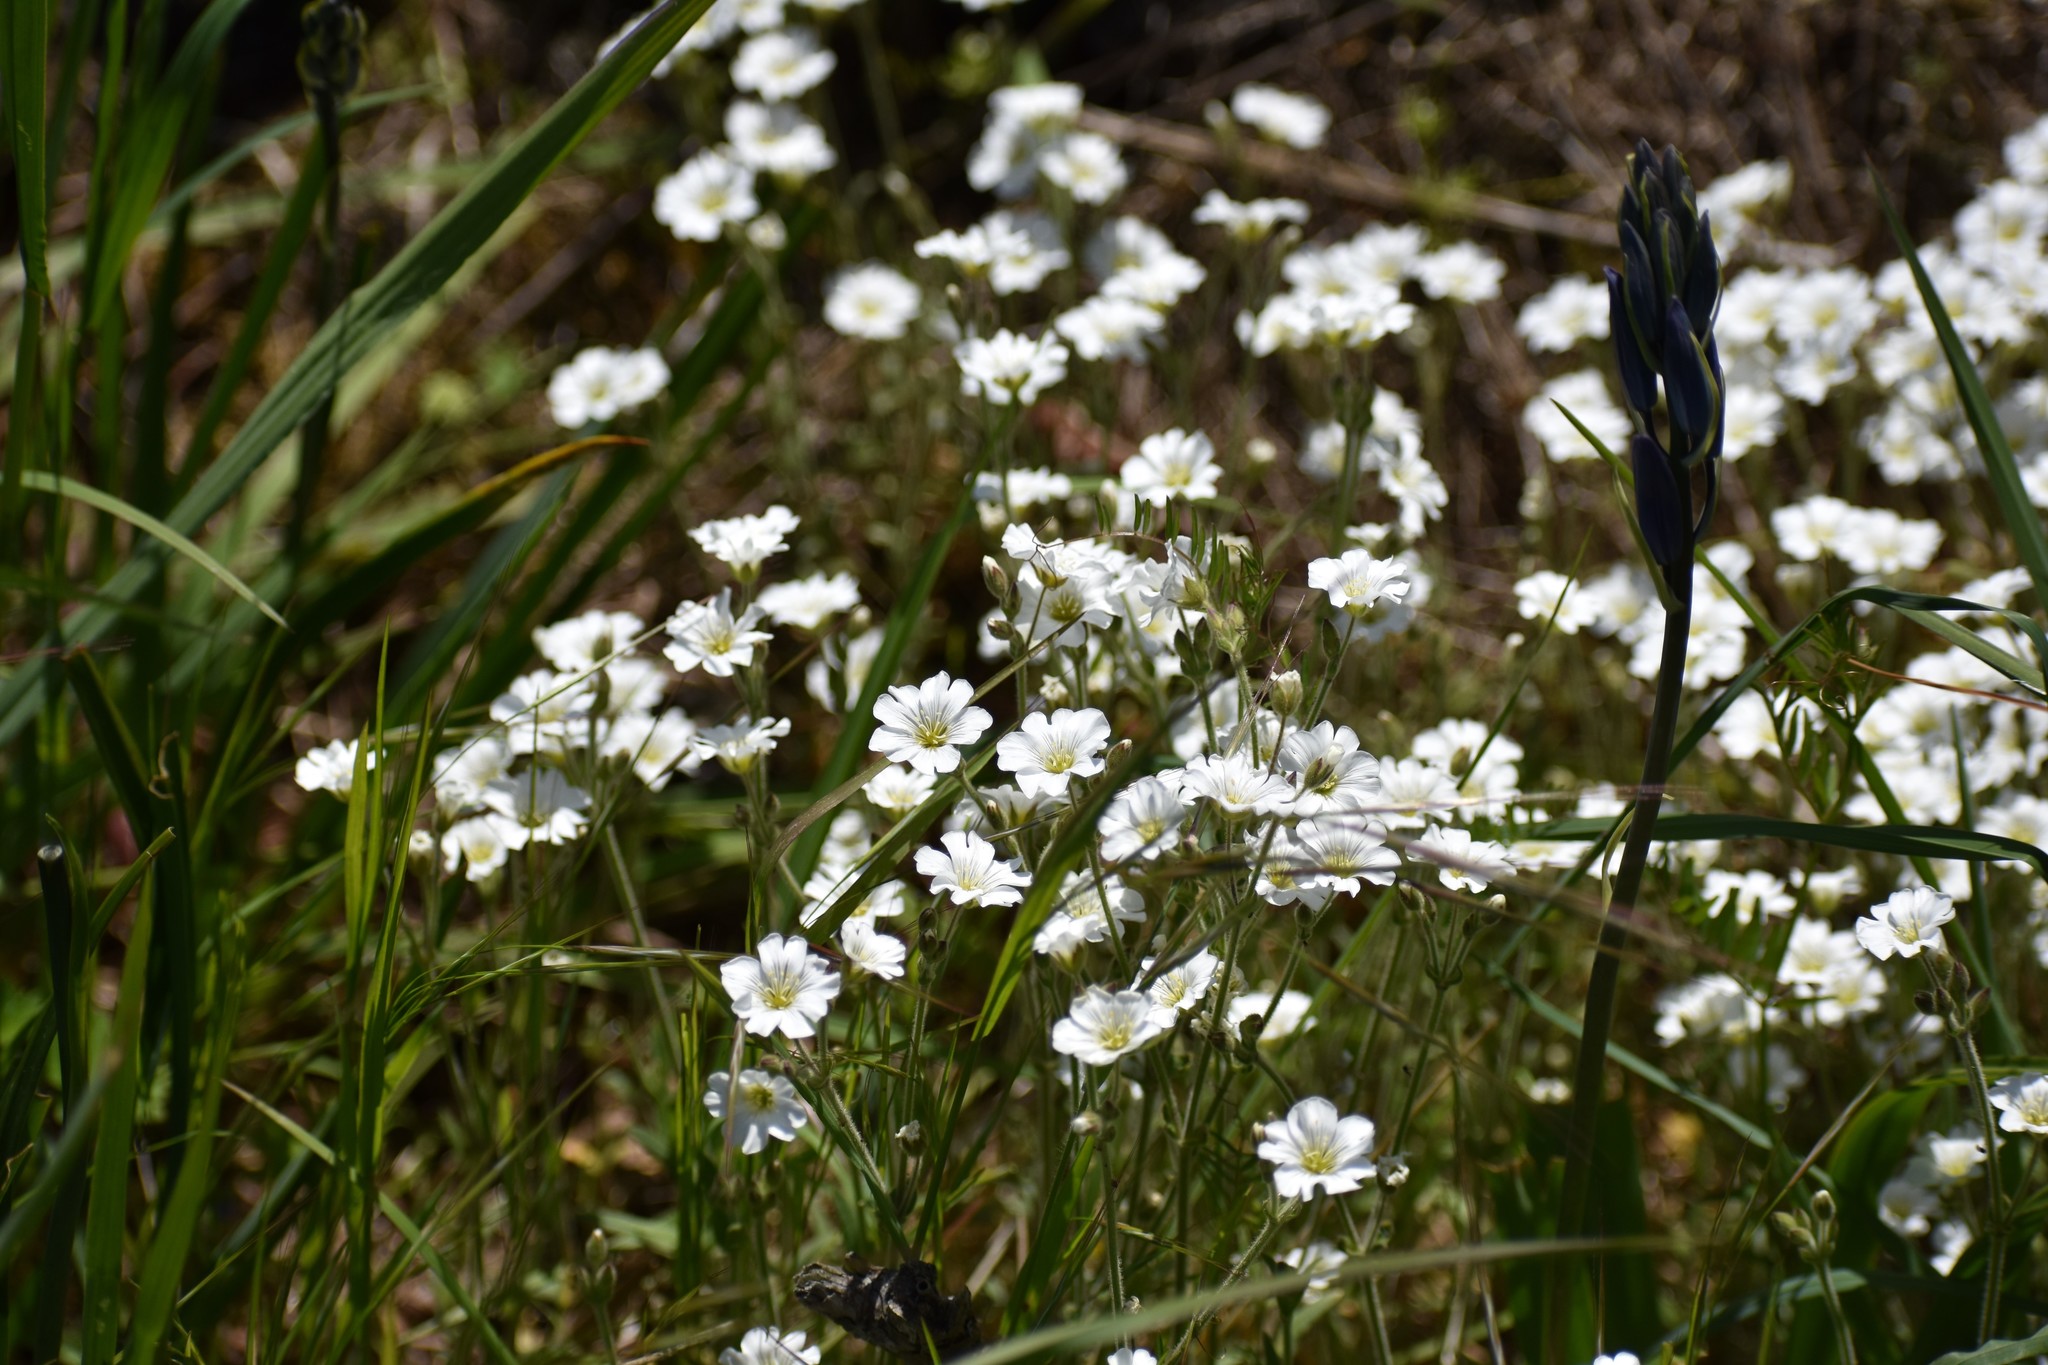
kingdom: Plantae
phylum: Tracheophyta
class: Magnoliopsida
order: Caryophyllales
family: Caryophyllaceae
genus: Cerastium
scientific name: Cerastium arvense
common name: Field mouse-ear
